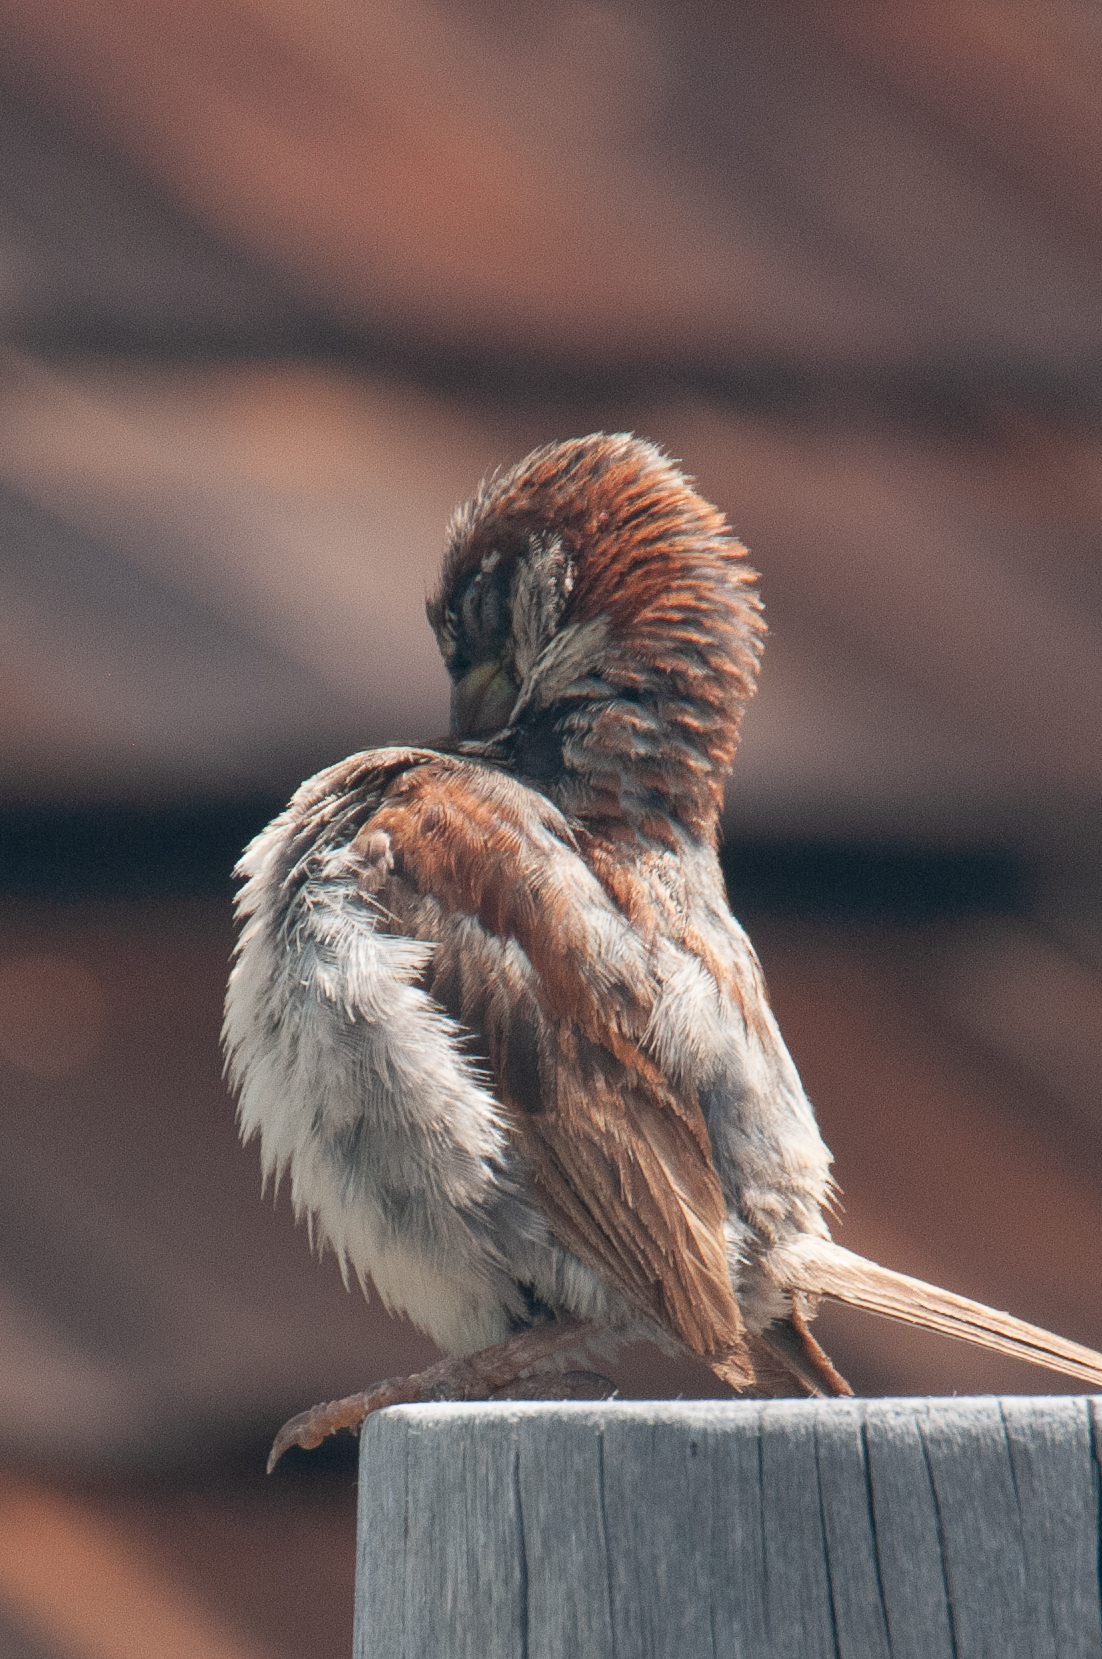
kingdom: Animalia
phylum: Chordata
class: Aves
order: Passeriformes
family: Passeridae
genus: Passer
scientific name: Passer domesticus
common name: House sparrow
